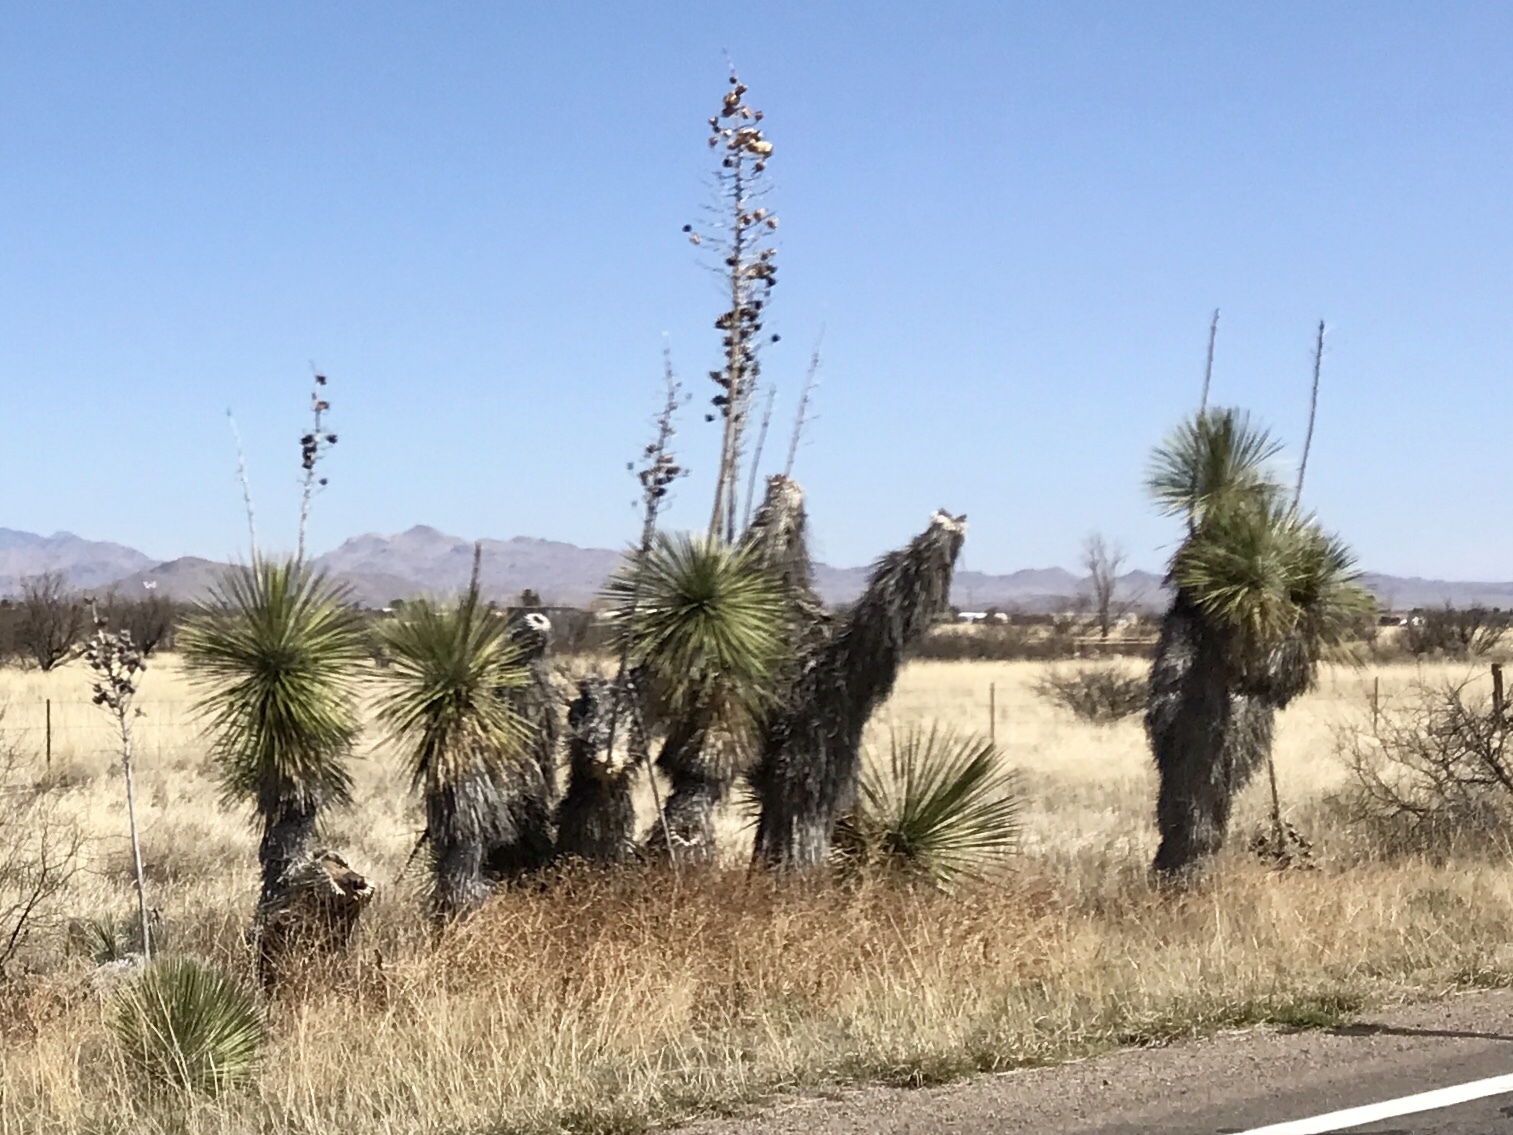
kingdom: Plantae
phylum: Tracheophyta
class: Liliopsida
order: Asparagales
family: Asparagaceae
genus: Yucca
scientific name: Yucca elata
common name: Palmella
